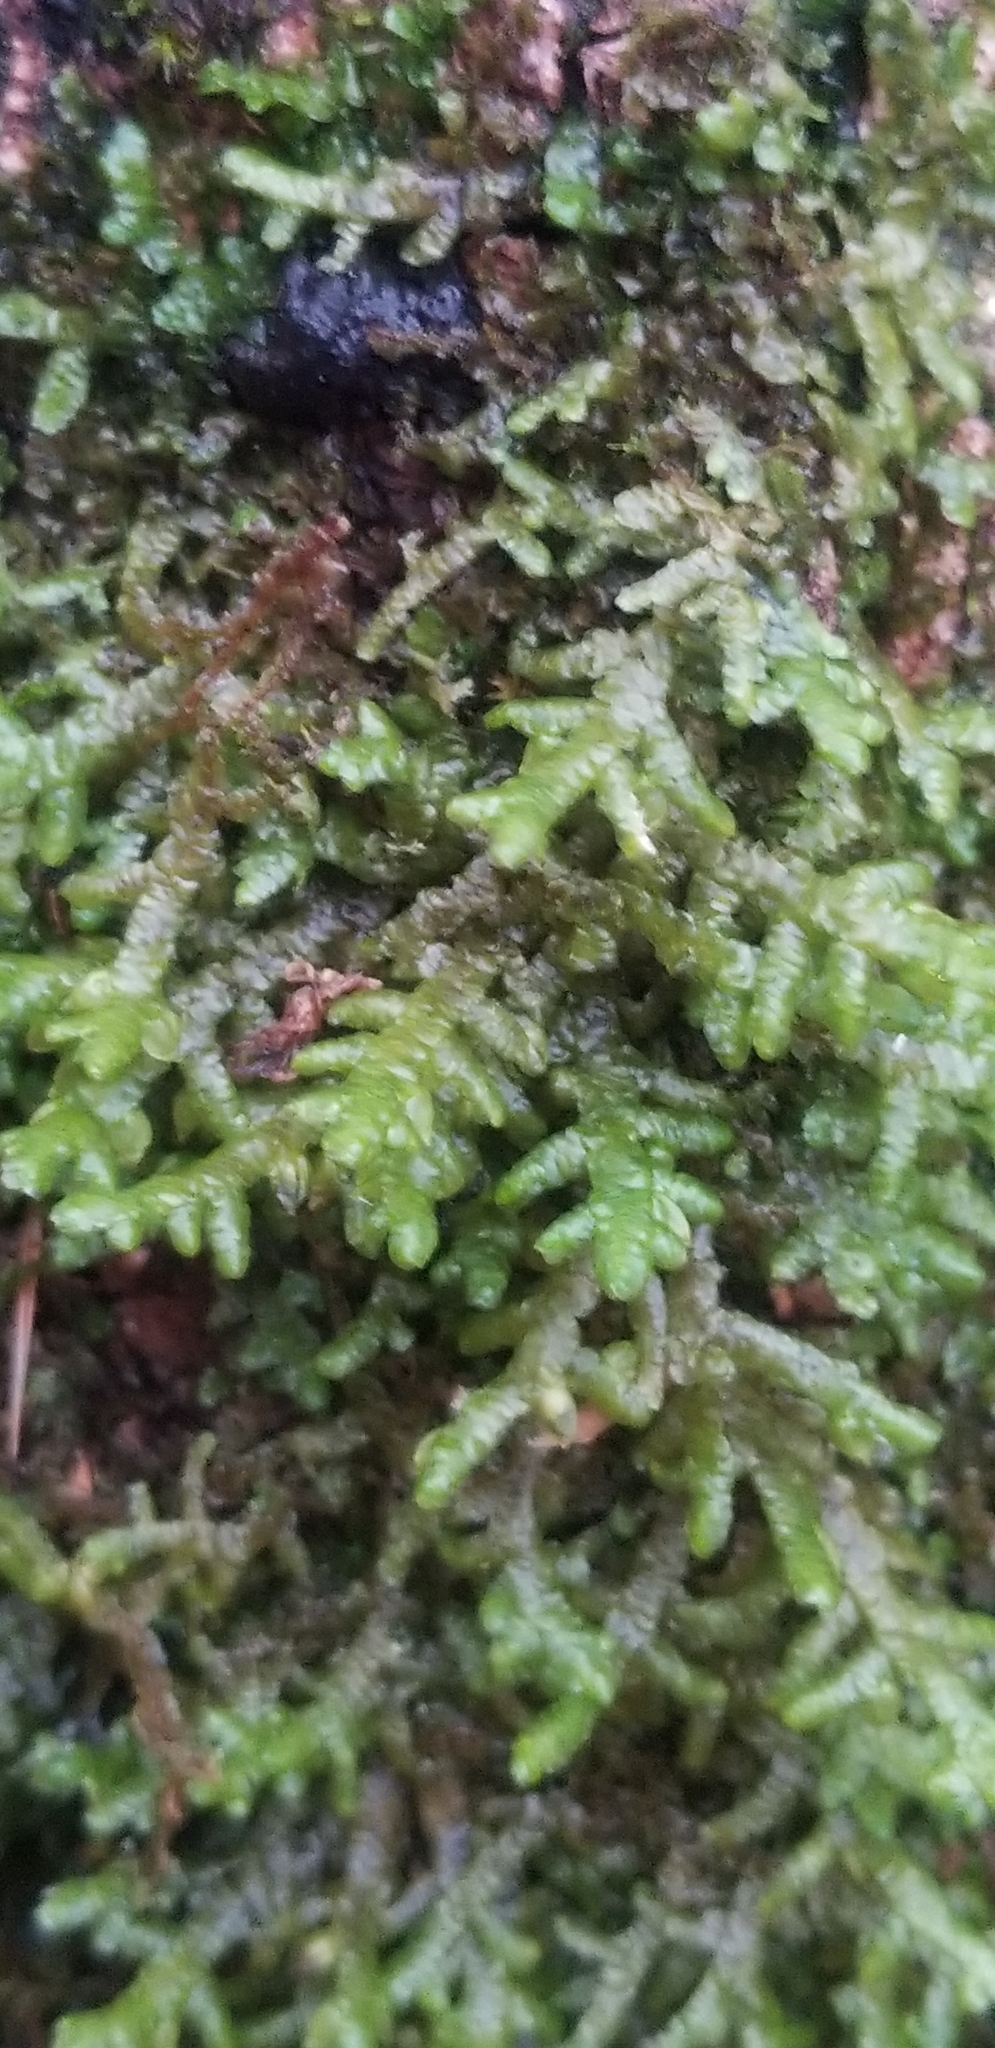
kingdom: Plantae
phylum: Marchantiophyta
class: Jungermanniopsida
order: Porellales
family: Porellaceae
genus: Porella
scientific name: Porella platyphylla
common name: Wall scalewort
